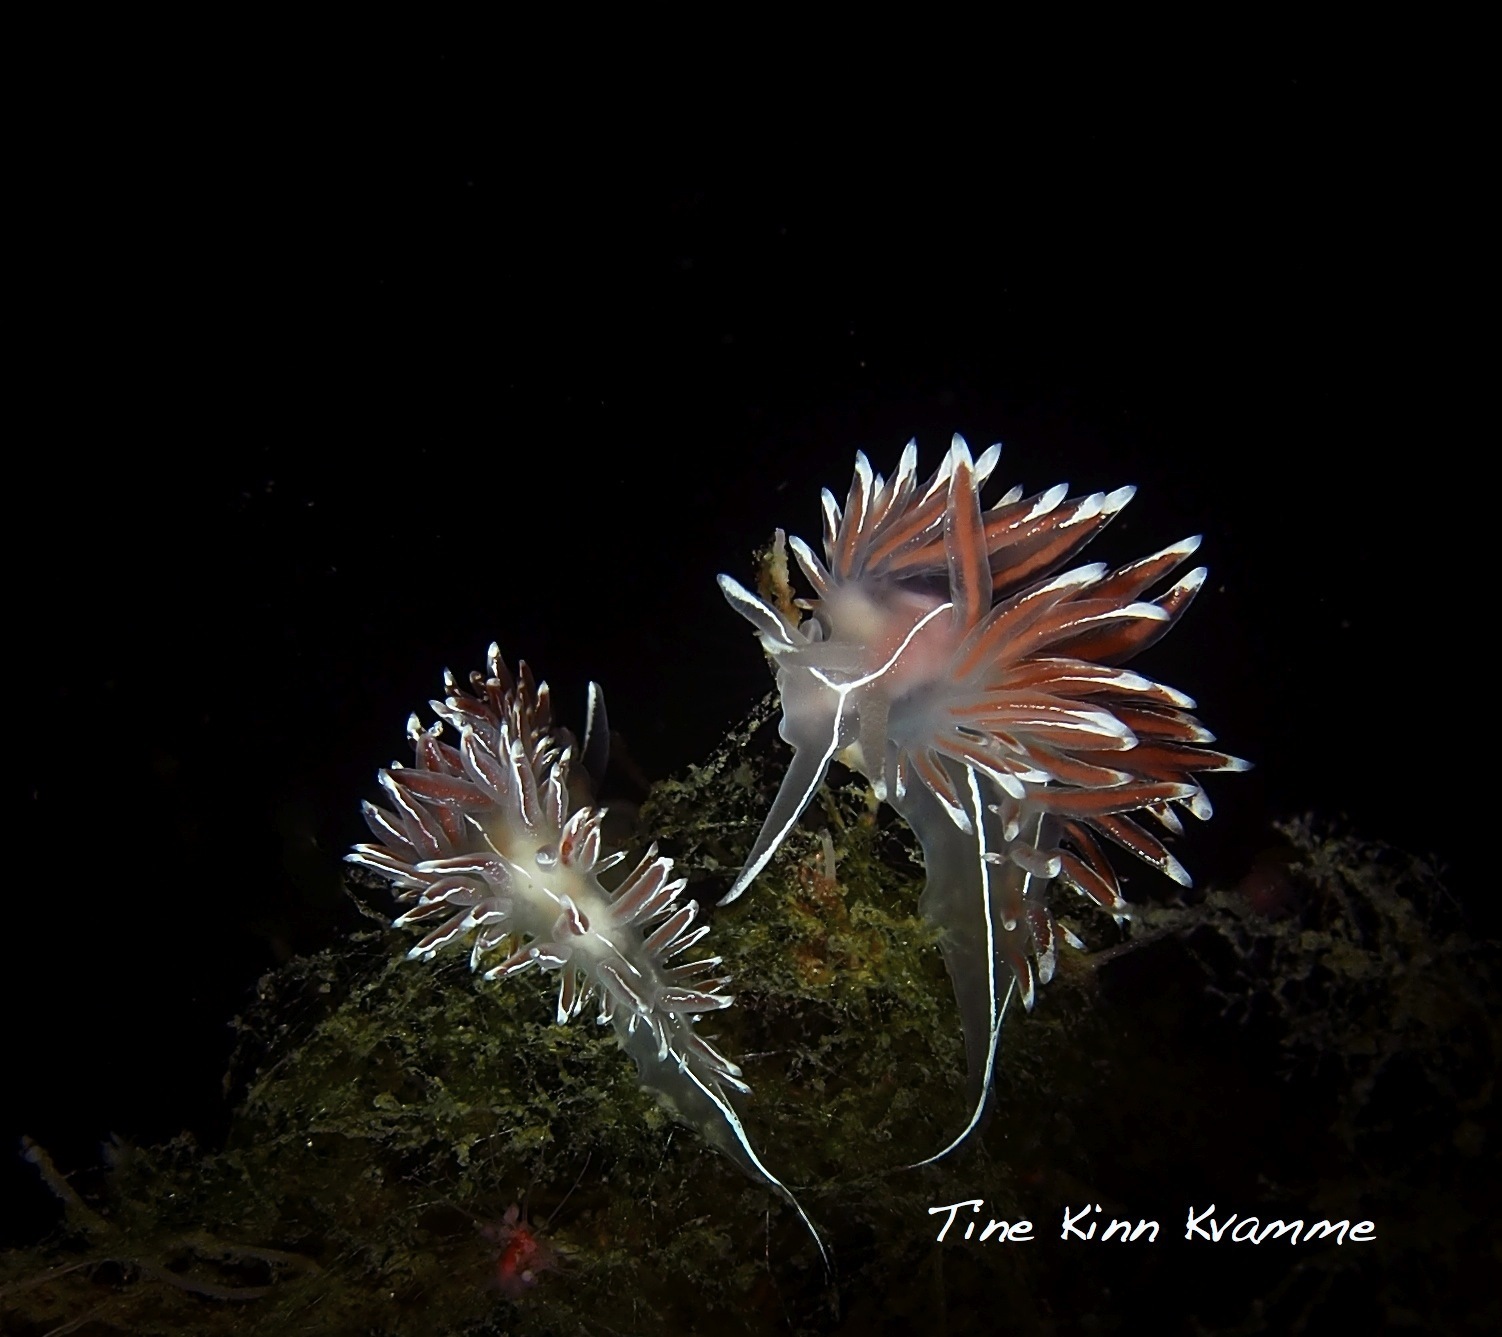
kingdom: Animalia
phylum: Mollusca
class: Gastropoda
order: Nudibranchia
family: Coryphellidae
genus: Coryphella
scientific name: Coryphella lineata
